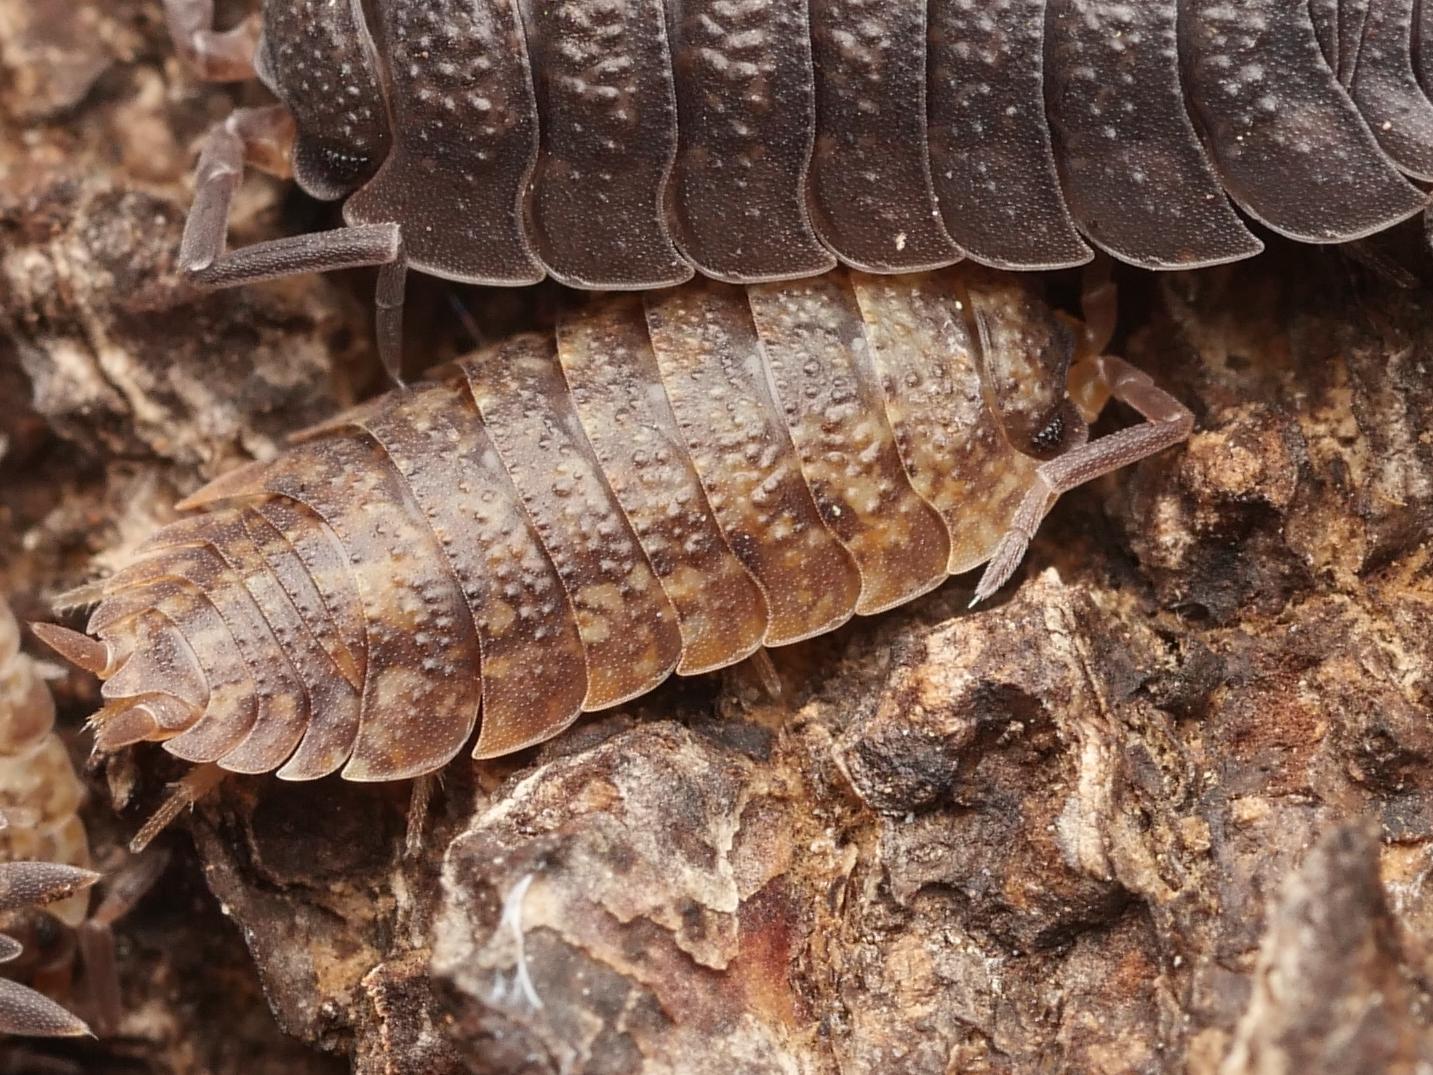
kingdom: Animalia
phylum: Arthropoda
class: Malacostraca
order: Isopoda
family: Porcellionidae
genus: Porcellio
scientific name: Porcellio scaber
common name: Common rough woodlouse
